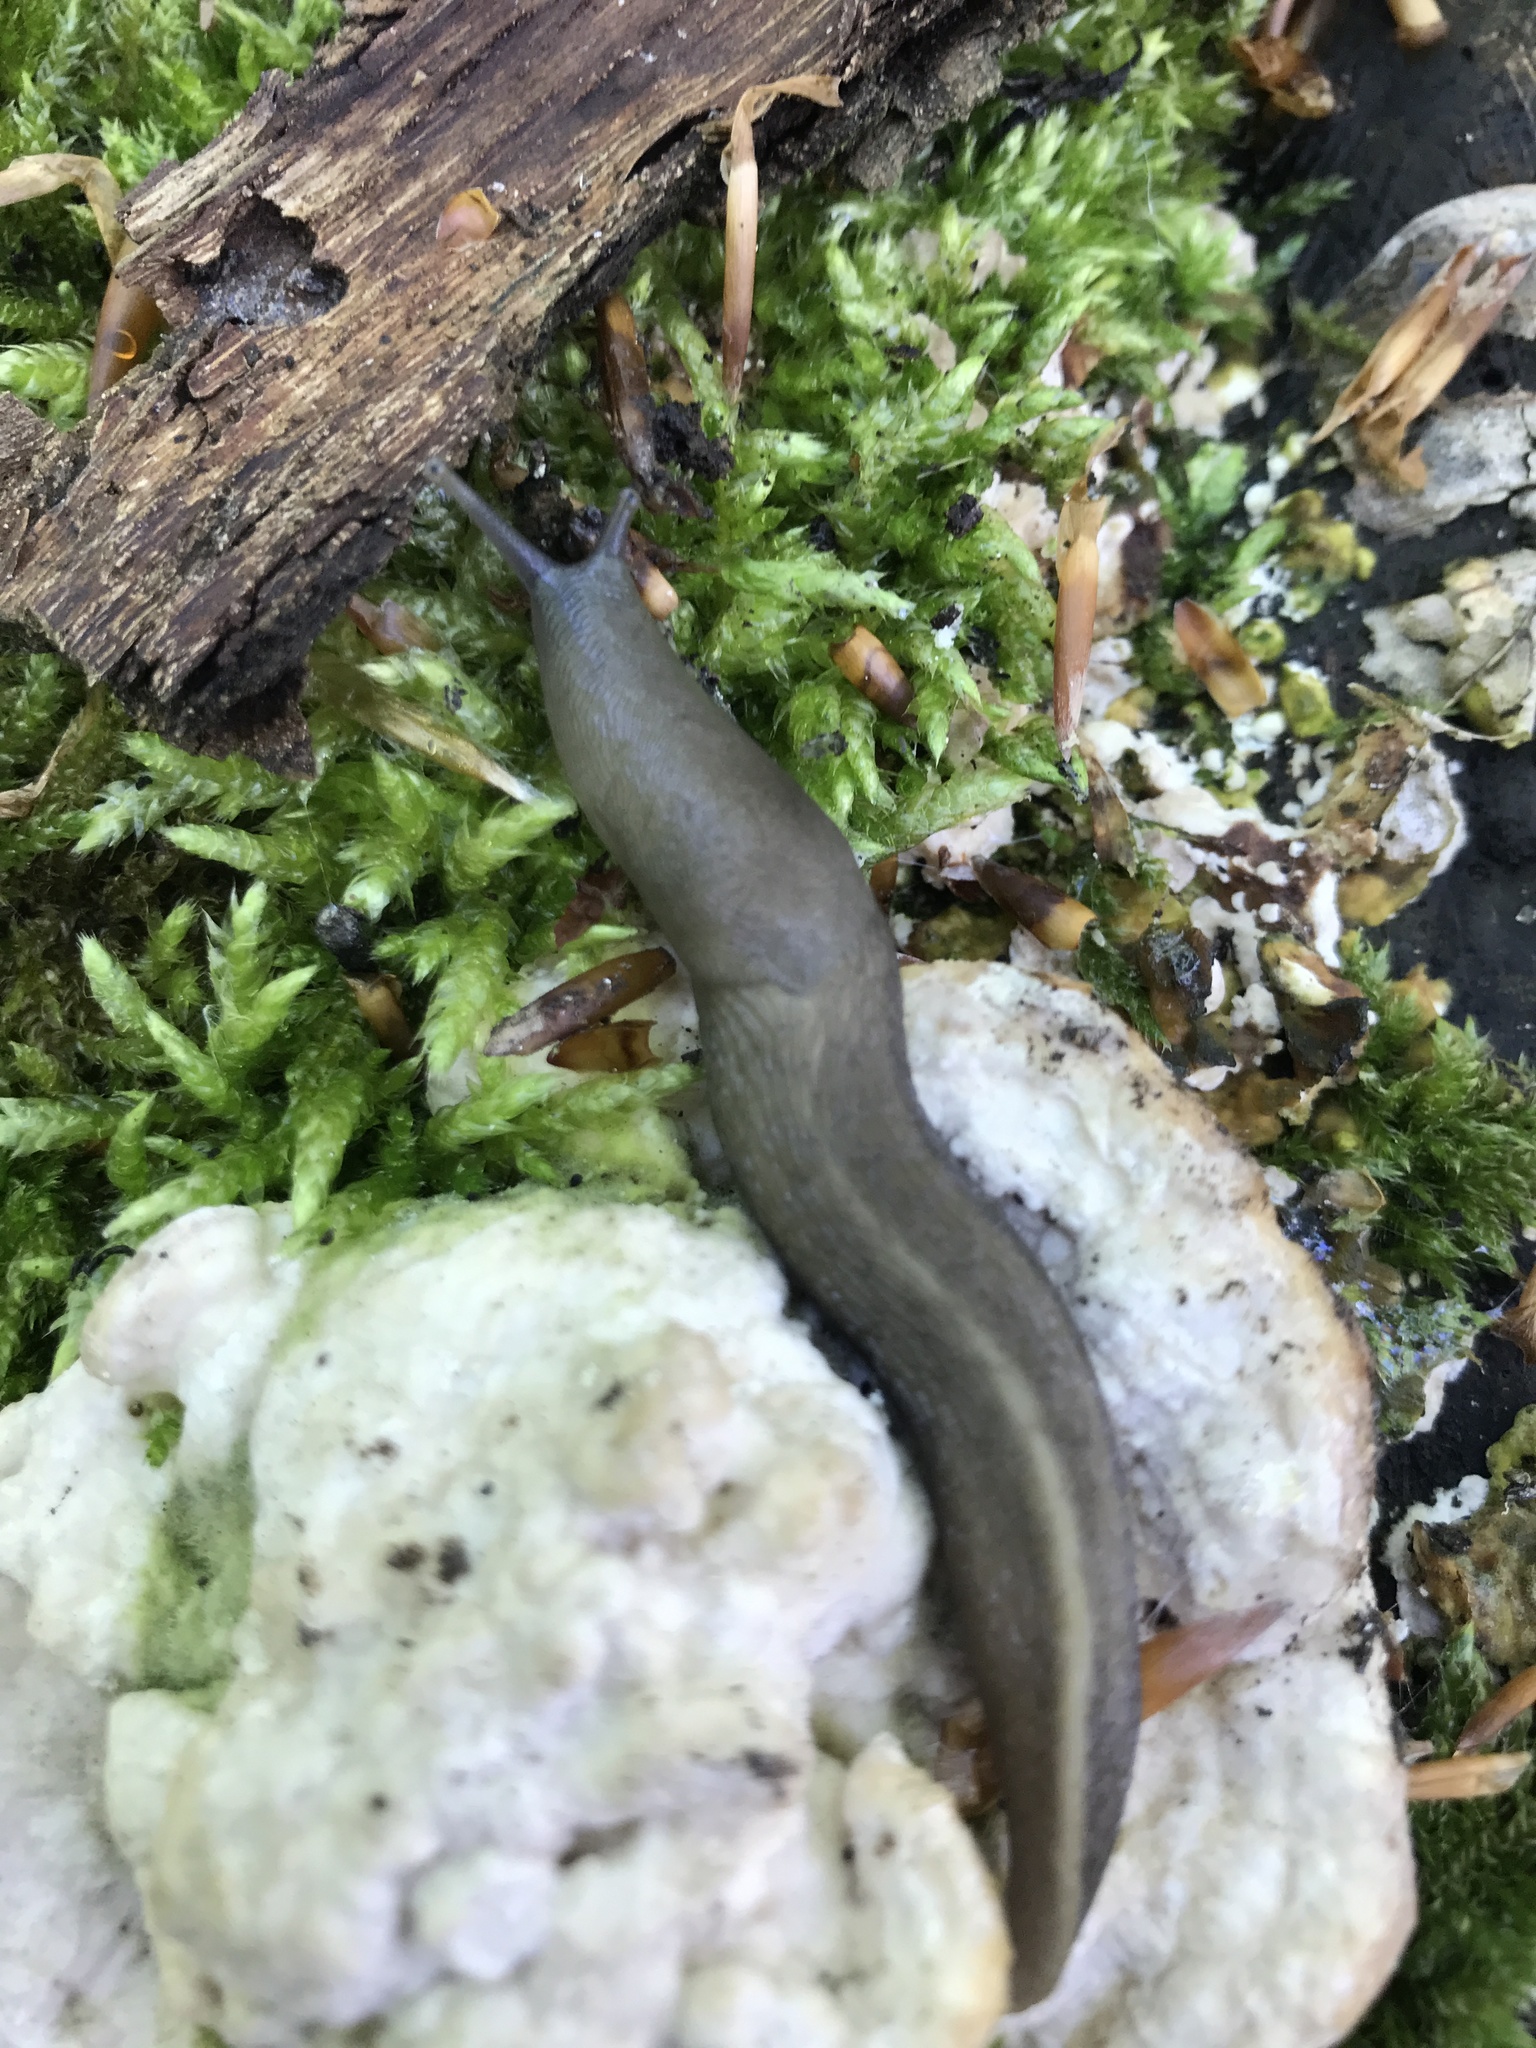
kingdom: Animalia
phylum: Mollusca
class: Gastropoda
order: Stylommatophora
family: Limacidae
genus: Limax
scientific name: Limax cinereoniger
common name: Ash-black slug
